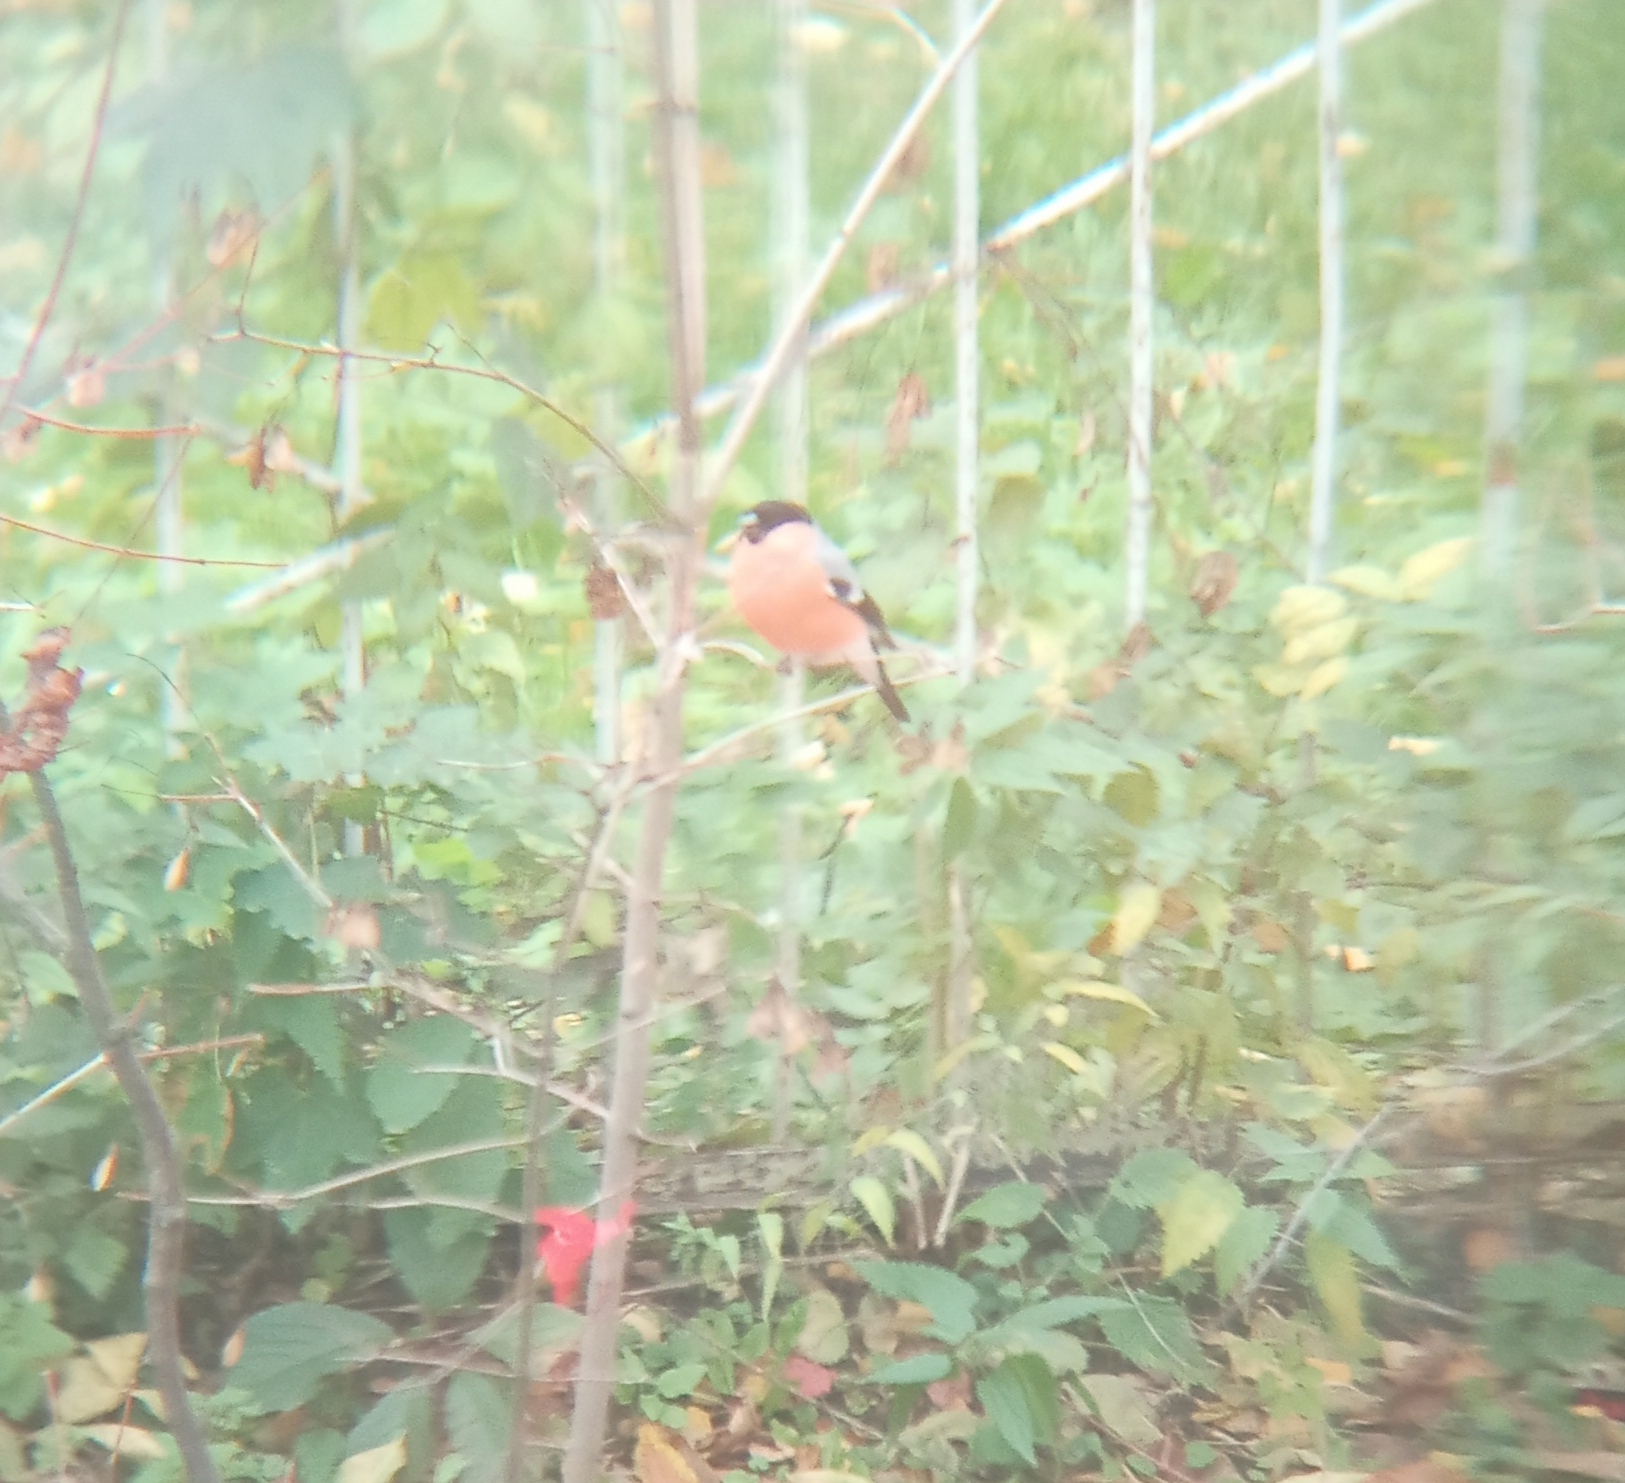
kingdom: Animalia
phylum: Chordata
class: Aves
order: Passeriformes
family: Fringillidae
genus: Pyrrhula
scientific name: Pyrrhula pyrrhula
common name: Eurasian bullfinch
